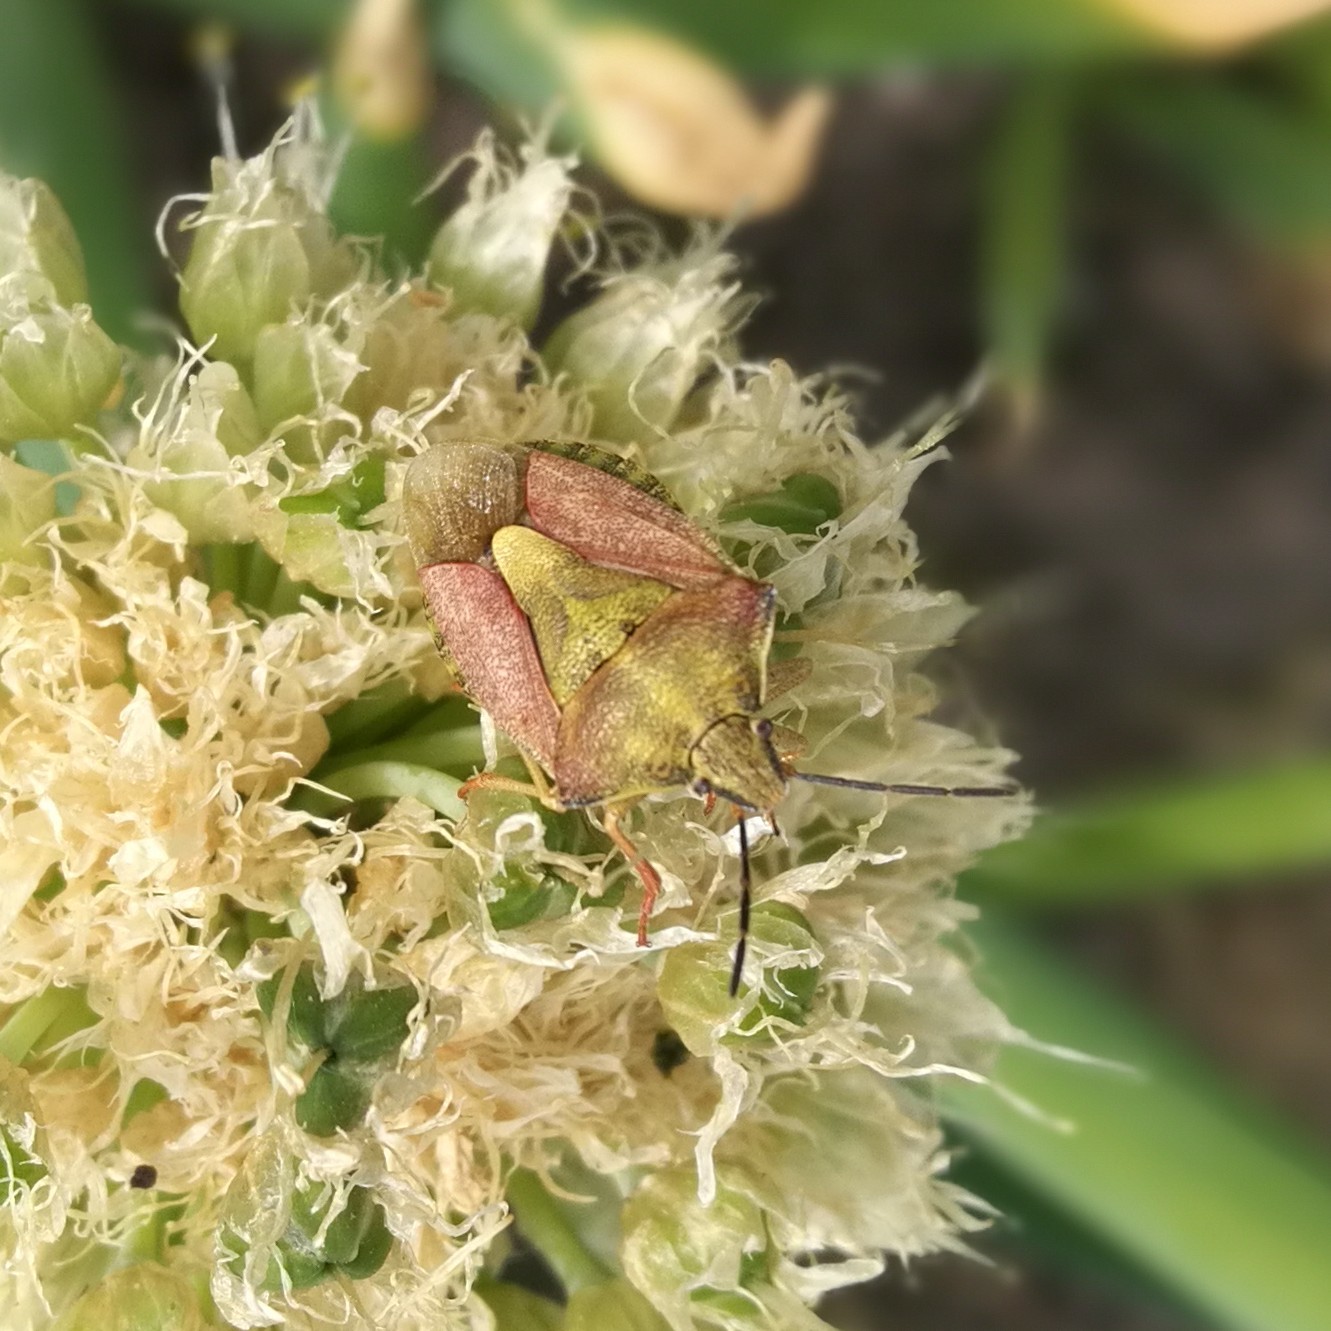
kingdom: Animalia
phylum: Arthropoda
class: Insecta
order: Hemiptera
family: Pentatomidae
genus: Carpocoris
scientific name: Carpocoris purpureipennis
